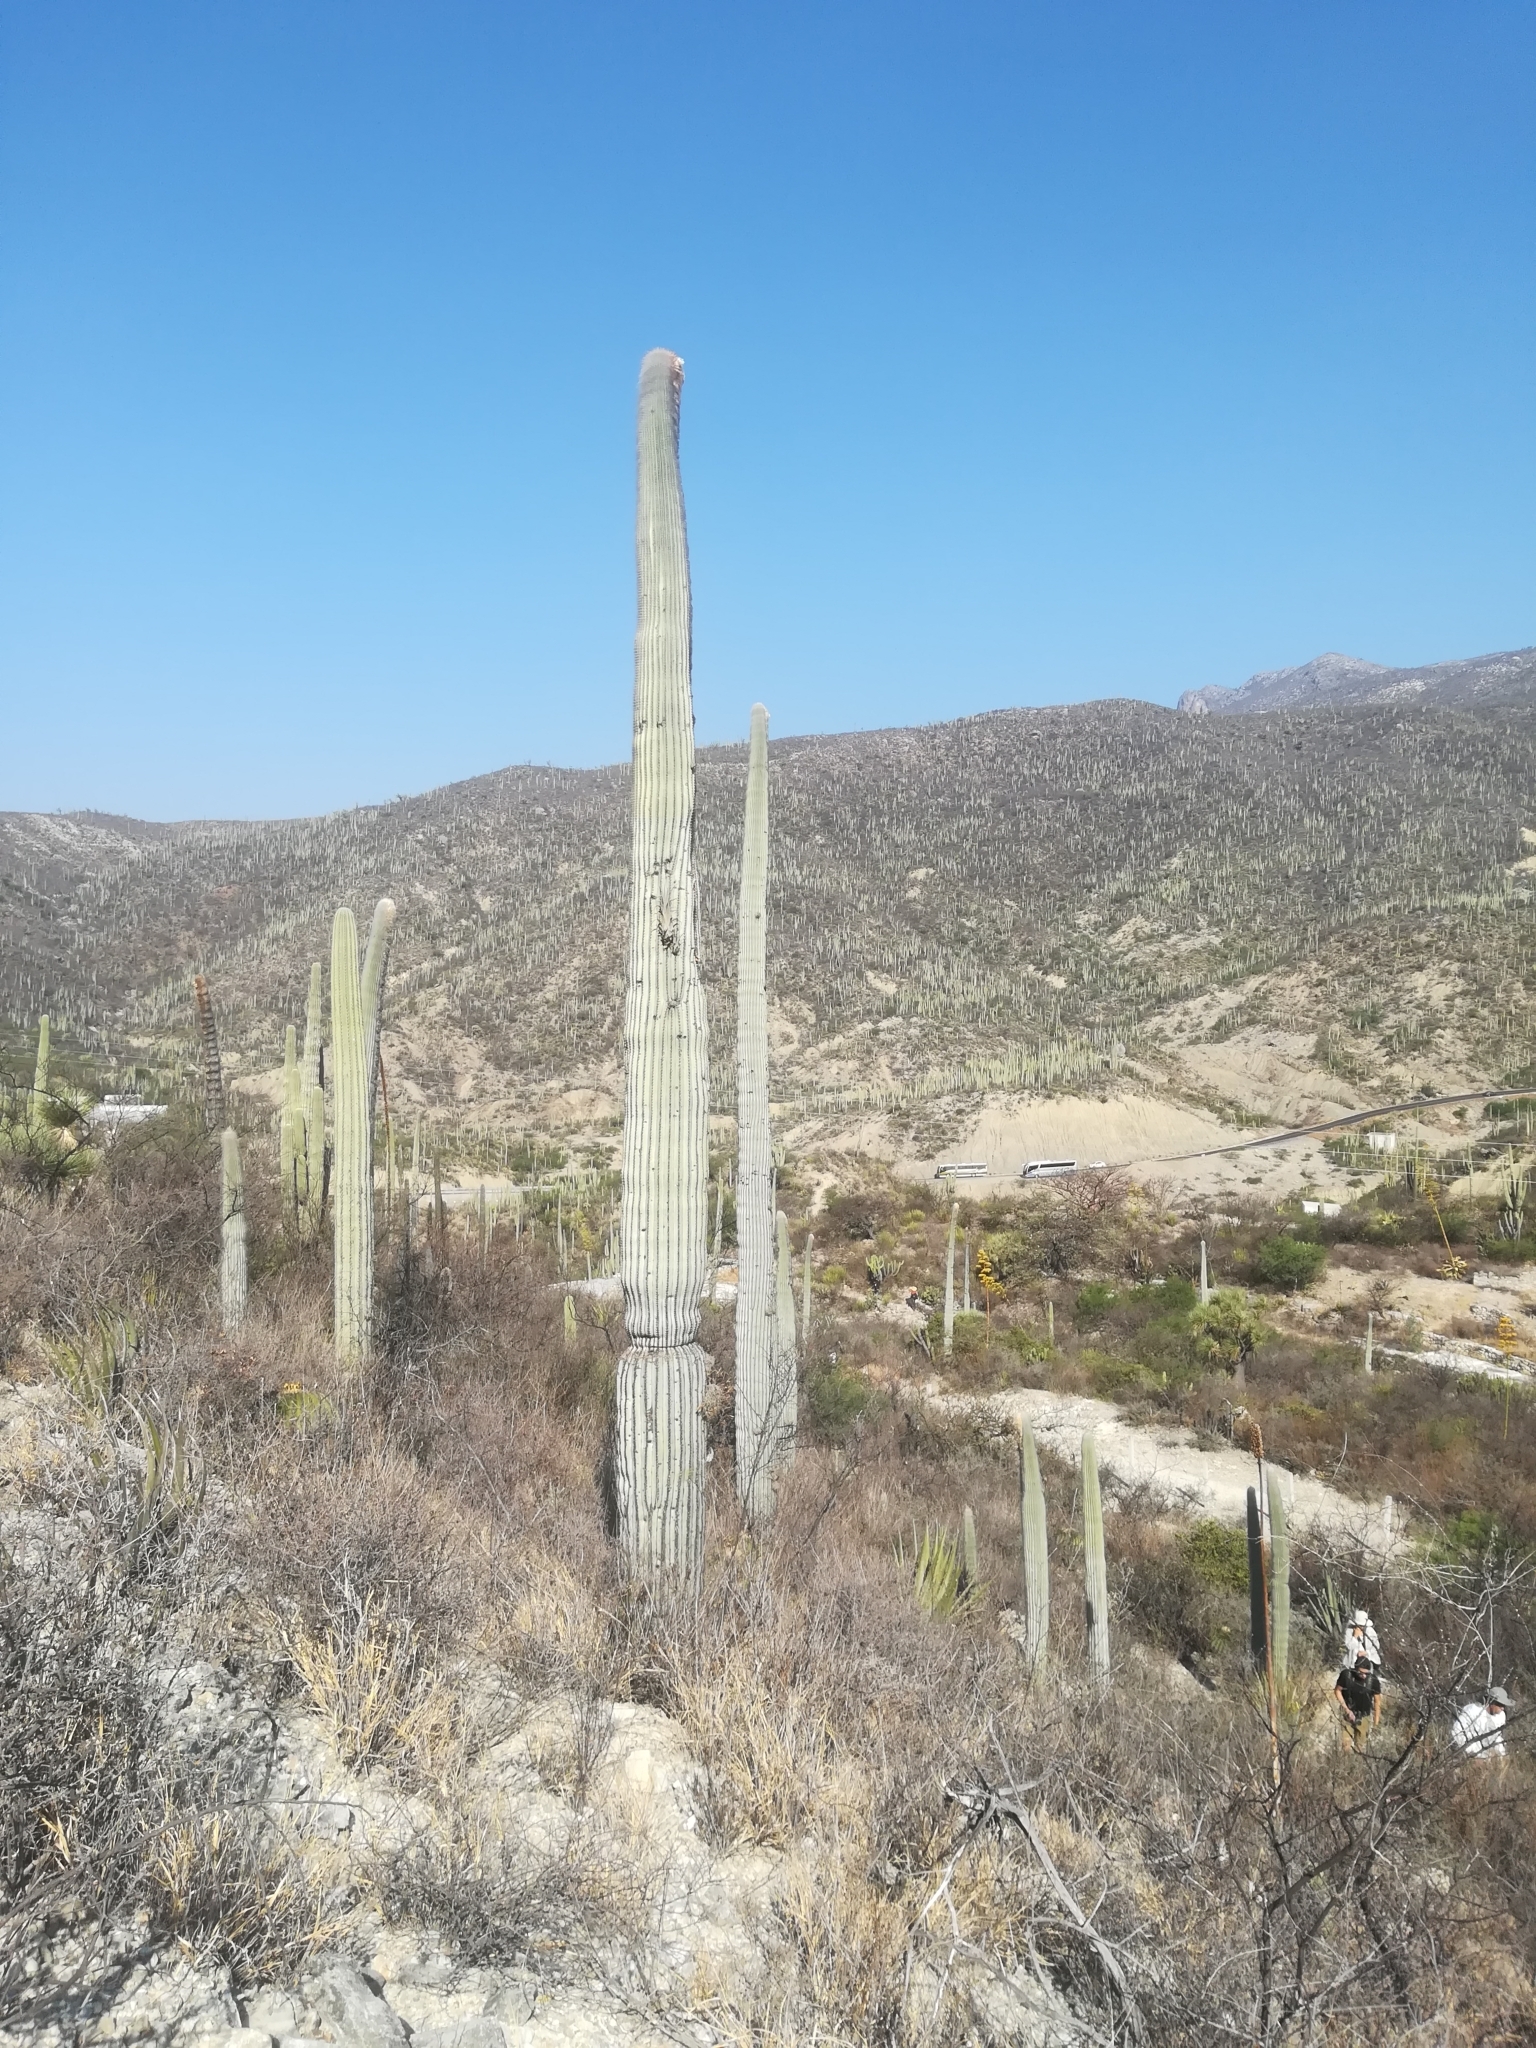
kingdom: Plantae
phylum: Tracheophyta
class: Magnoliopsida
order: Caryophyllales
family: Cactaceae
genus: Cephalocereus
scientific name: Cephalocereus columna-trajani
